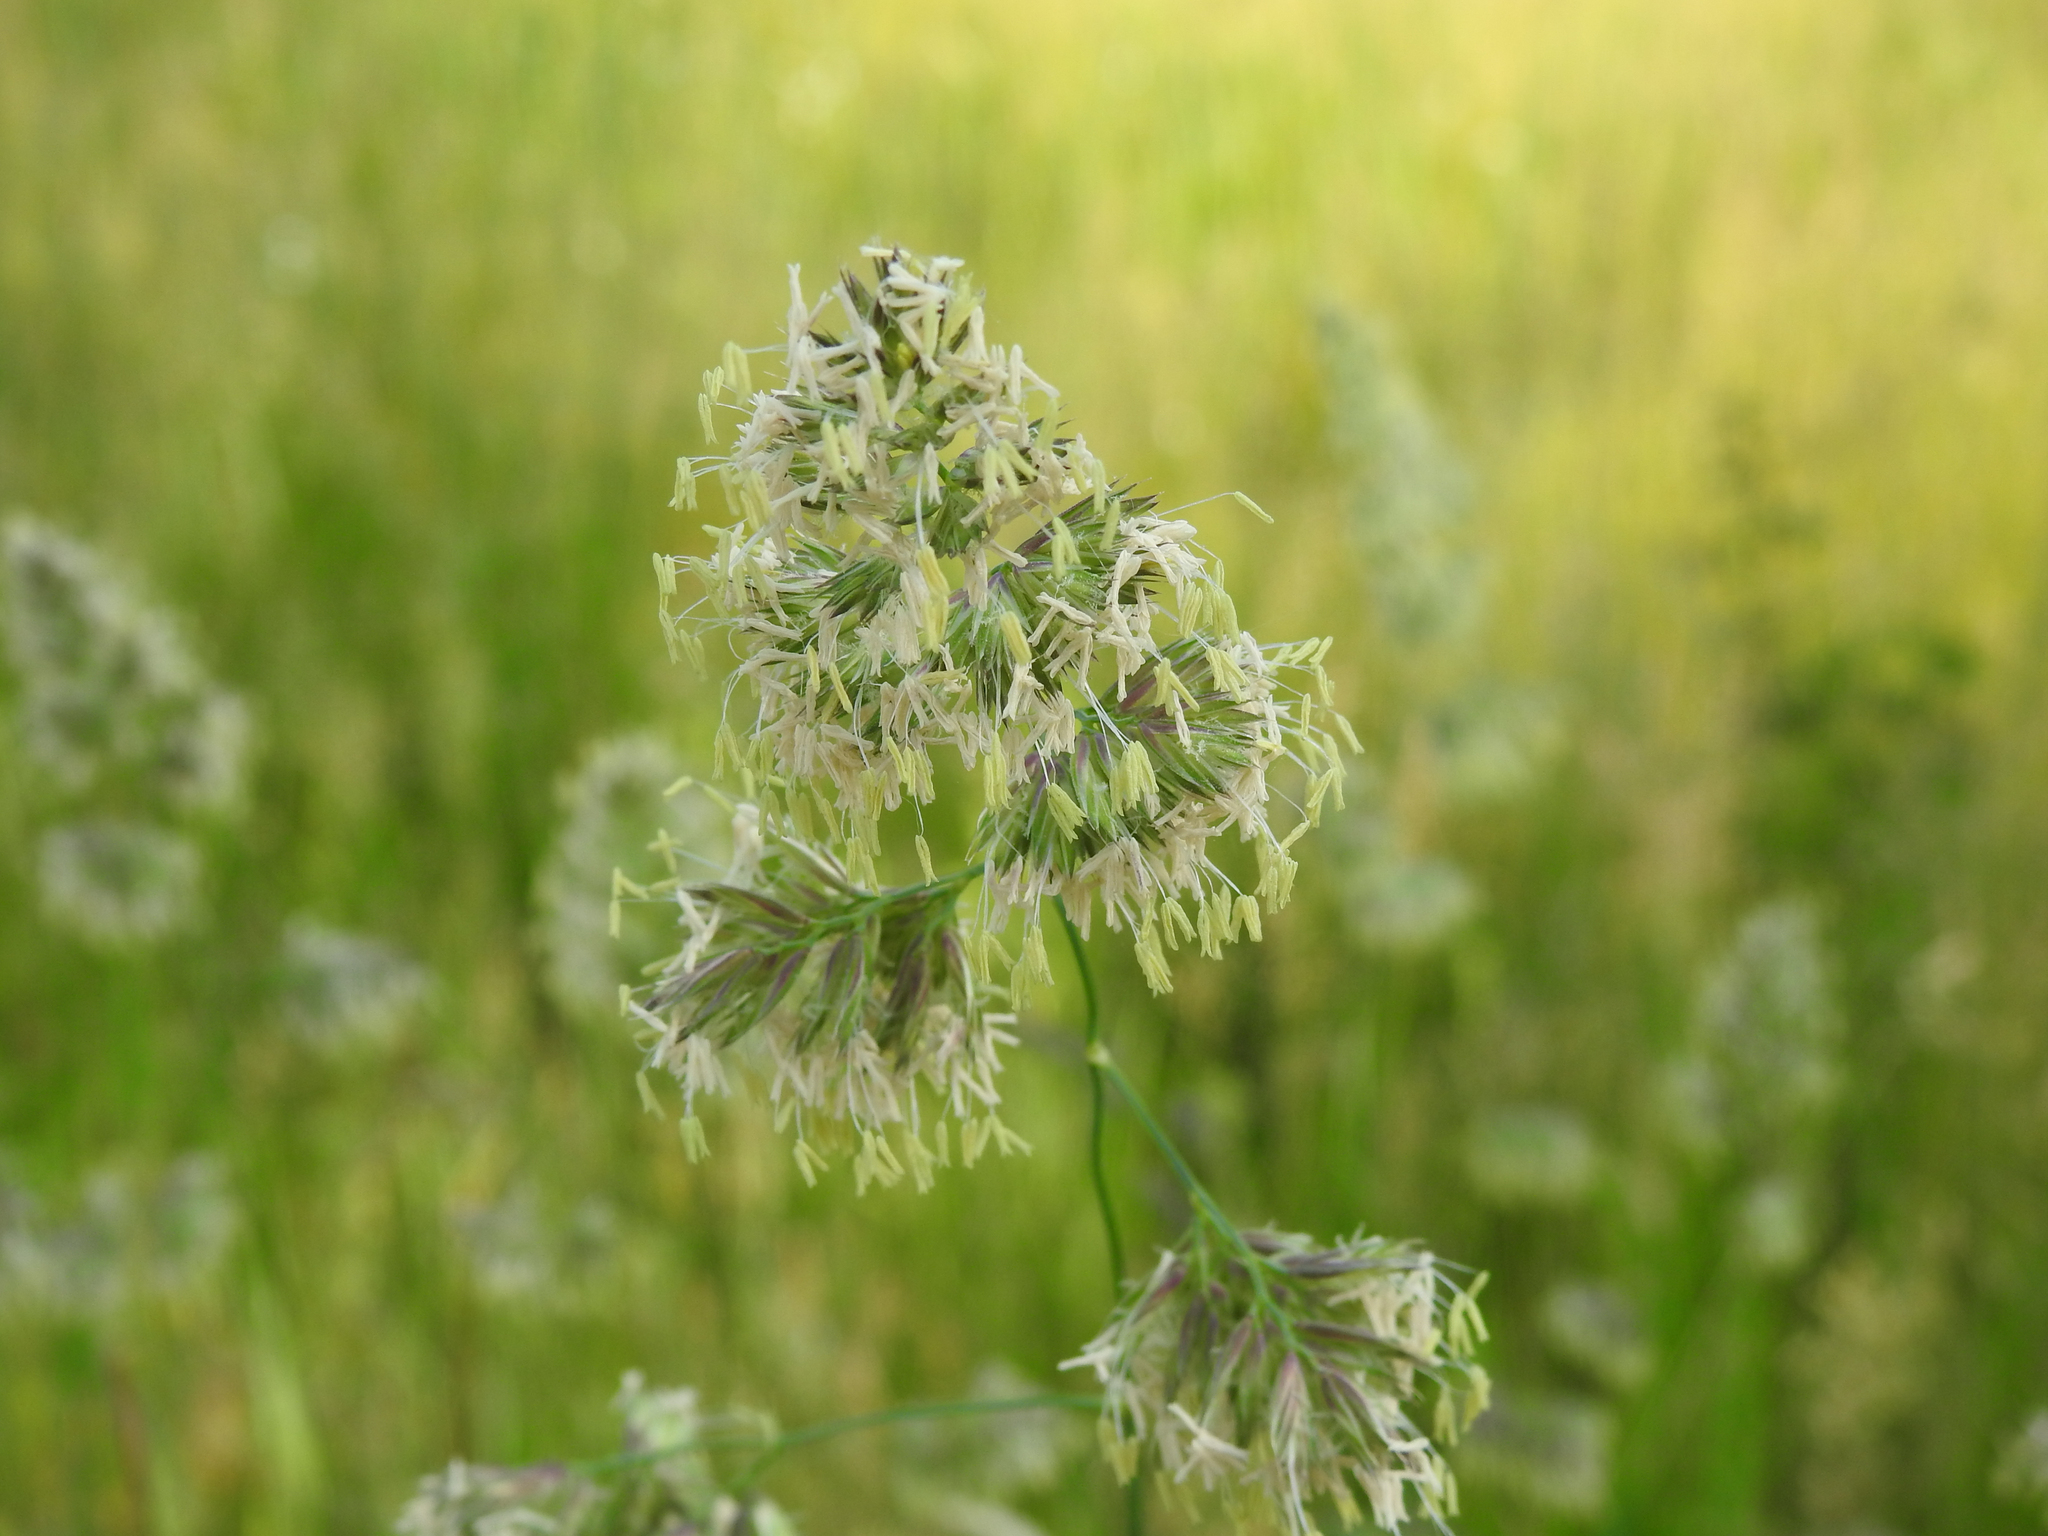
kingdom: Plantae
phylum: Tracheophyta
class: Liliopsida
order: Poales
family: Poaceae
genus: Dactylis
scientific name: Dactylis glomerata
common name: Orchardgrass
